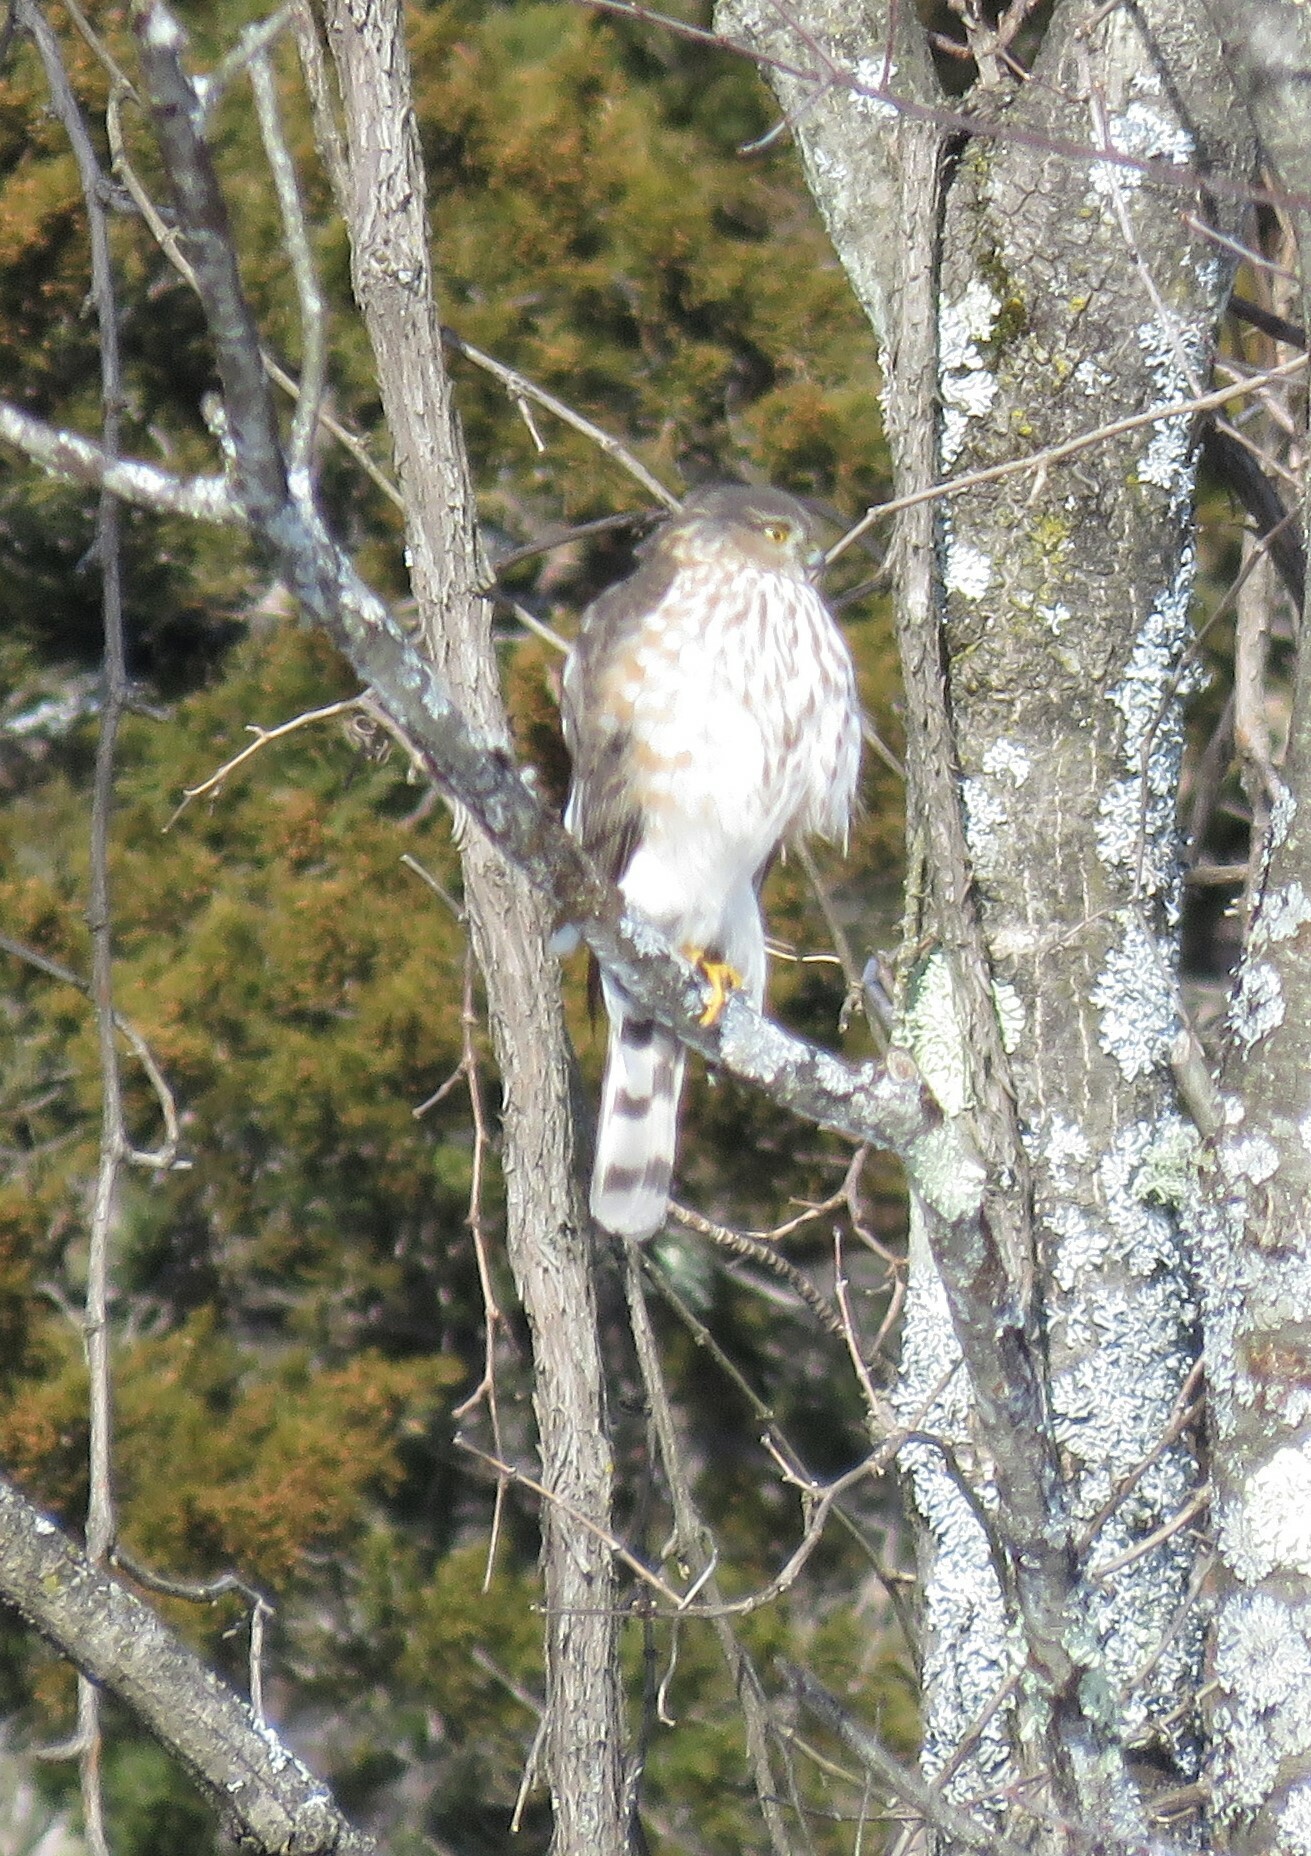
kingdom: Animalia
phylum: Chordata
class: Aves
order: Accipitriformes
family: Accipitridae
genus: Accipiter
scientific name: Accipiter striatus
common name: Sharp-shinned hawk
